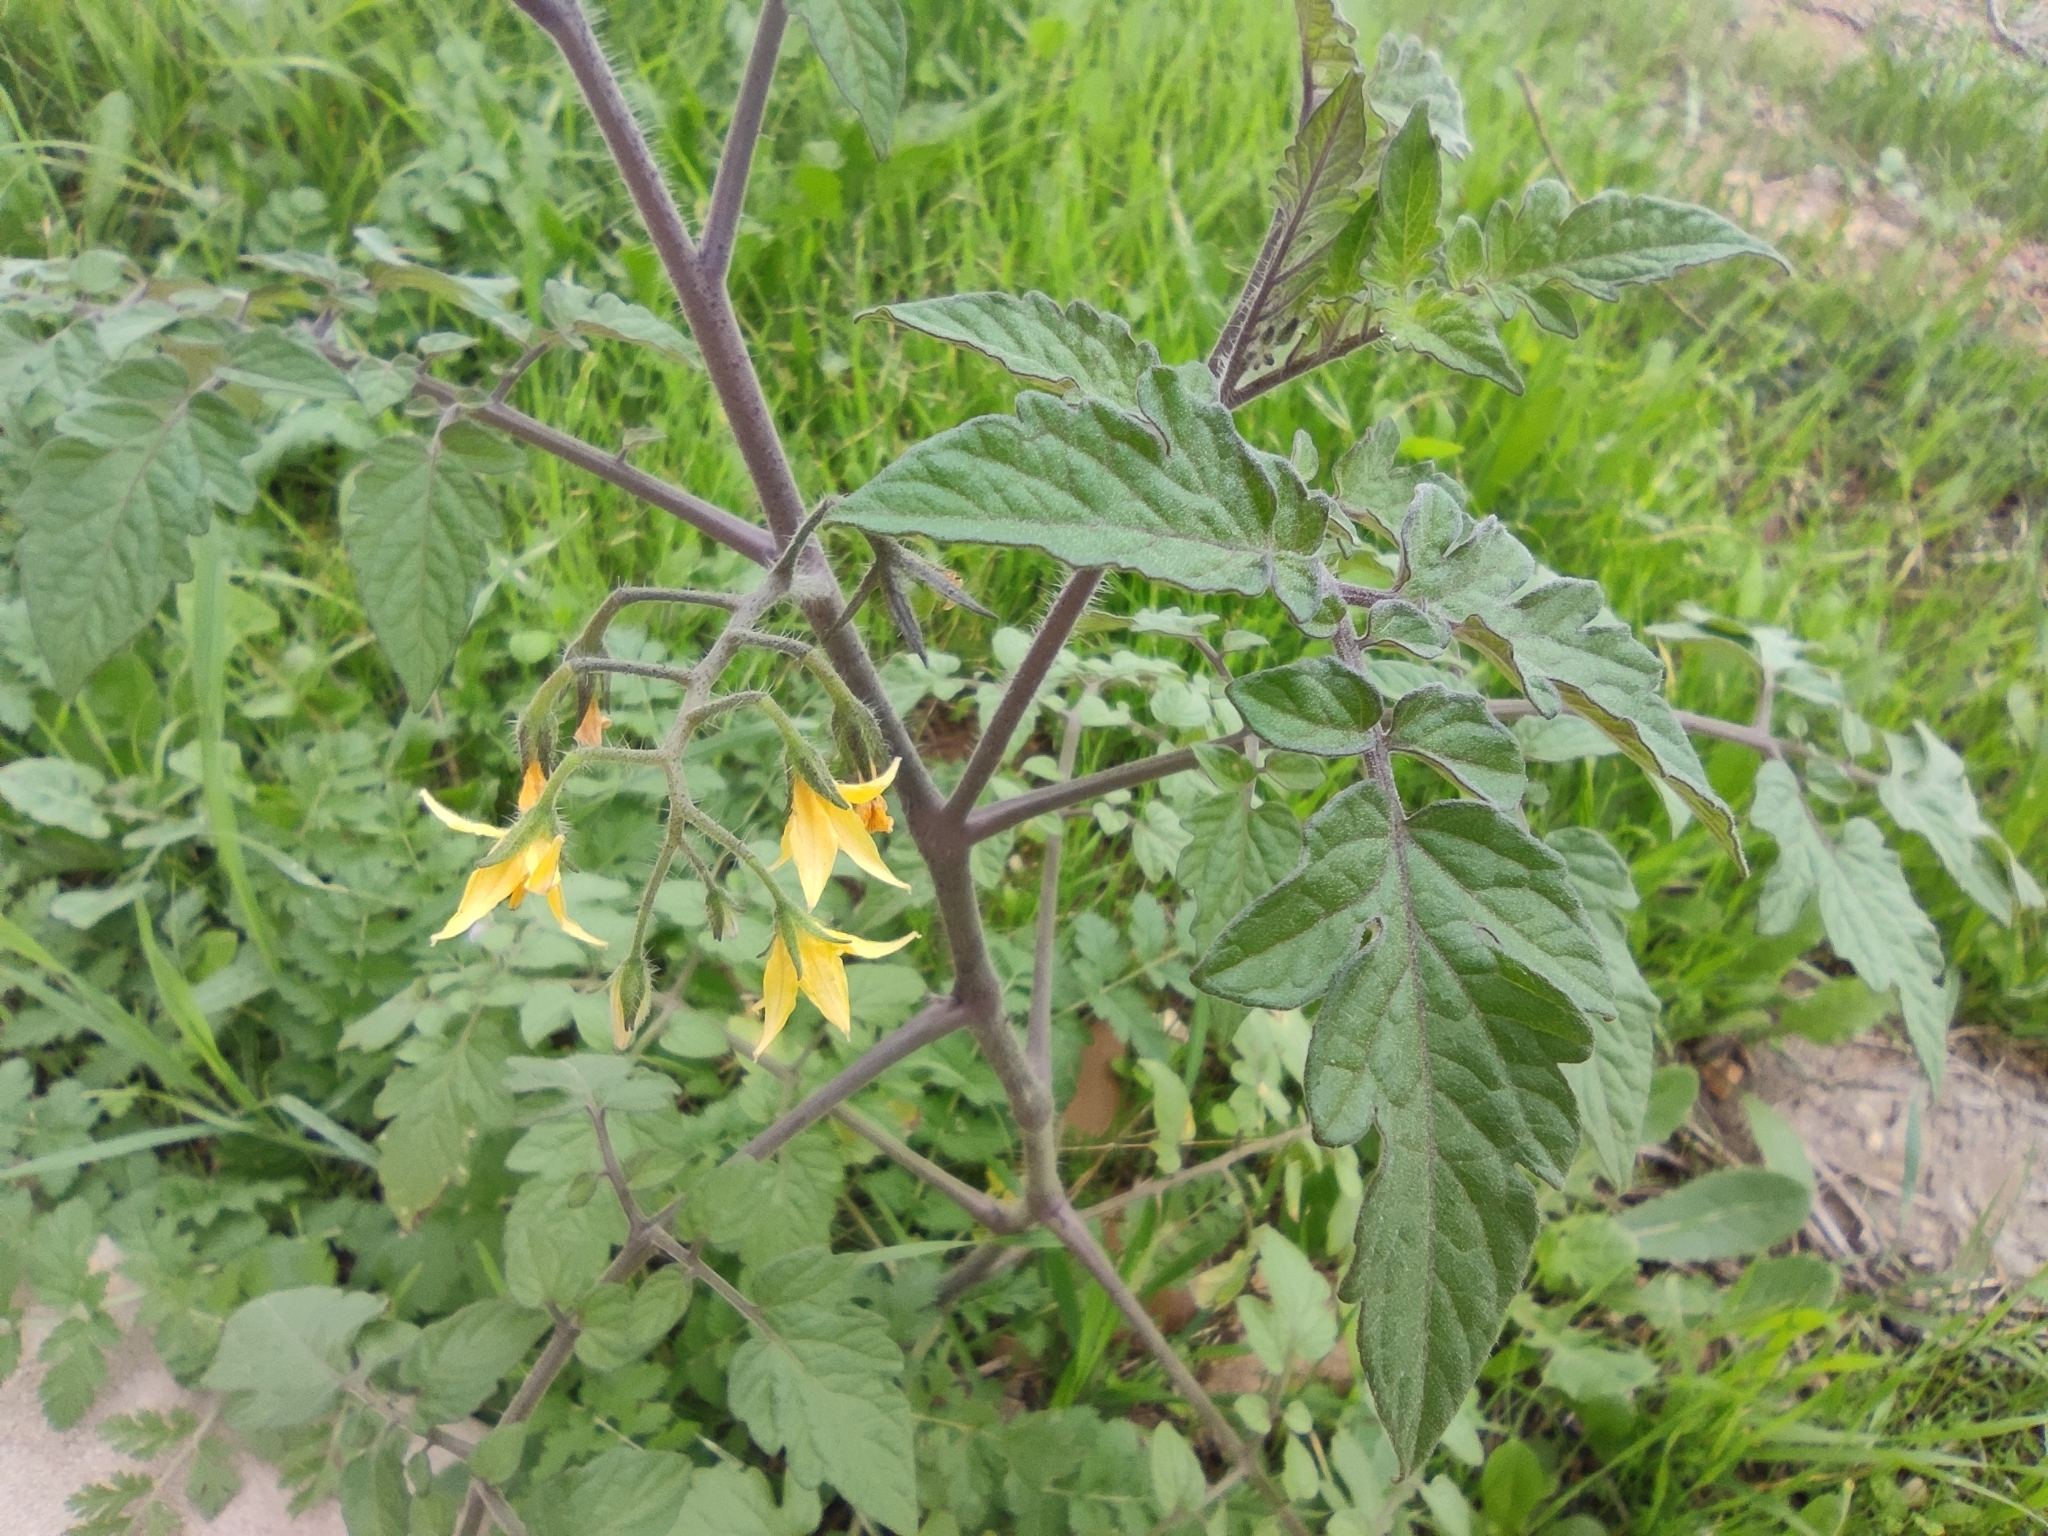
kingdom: Plantae
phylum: Tracheophyta
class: Magnoliopsida
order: Solanales
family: Solanaceae
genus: Solanum
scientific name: Solanum lycopersicum
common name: Garden tomato
